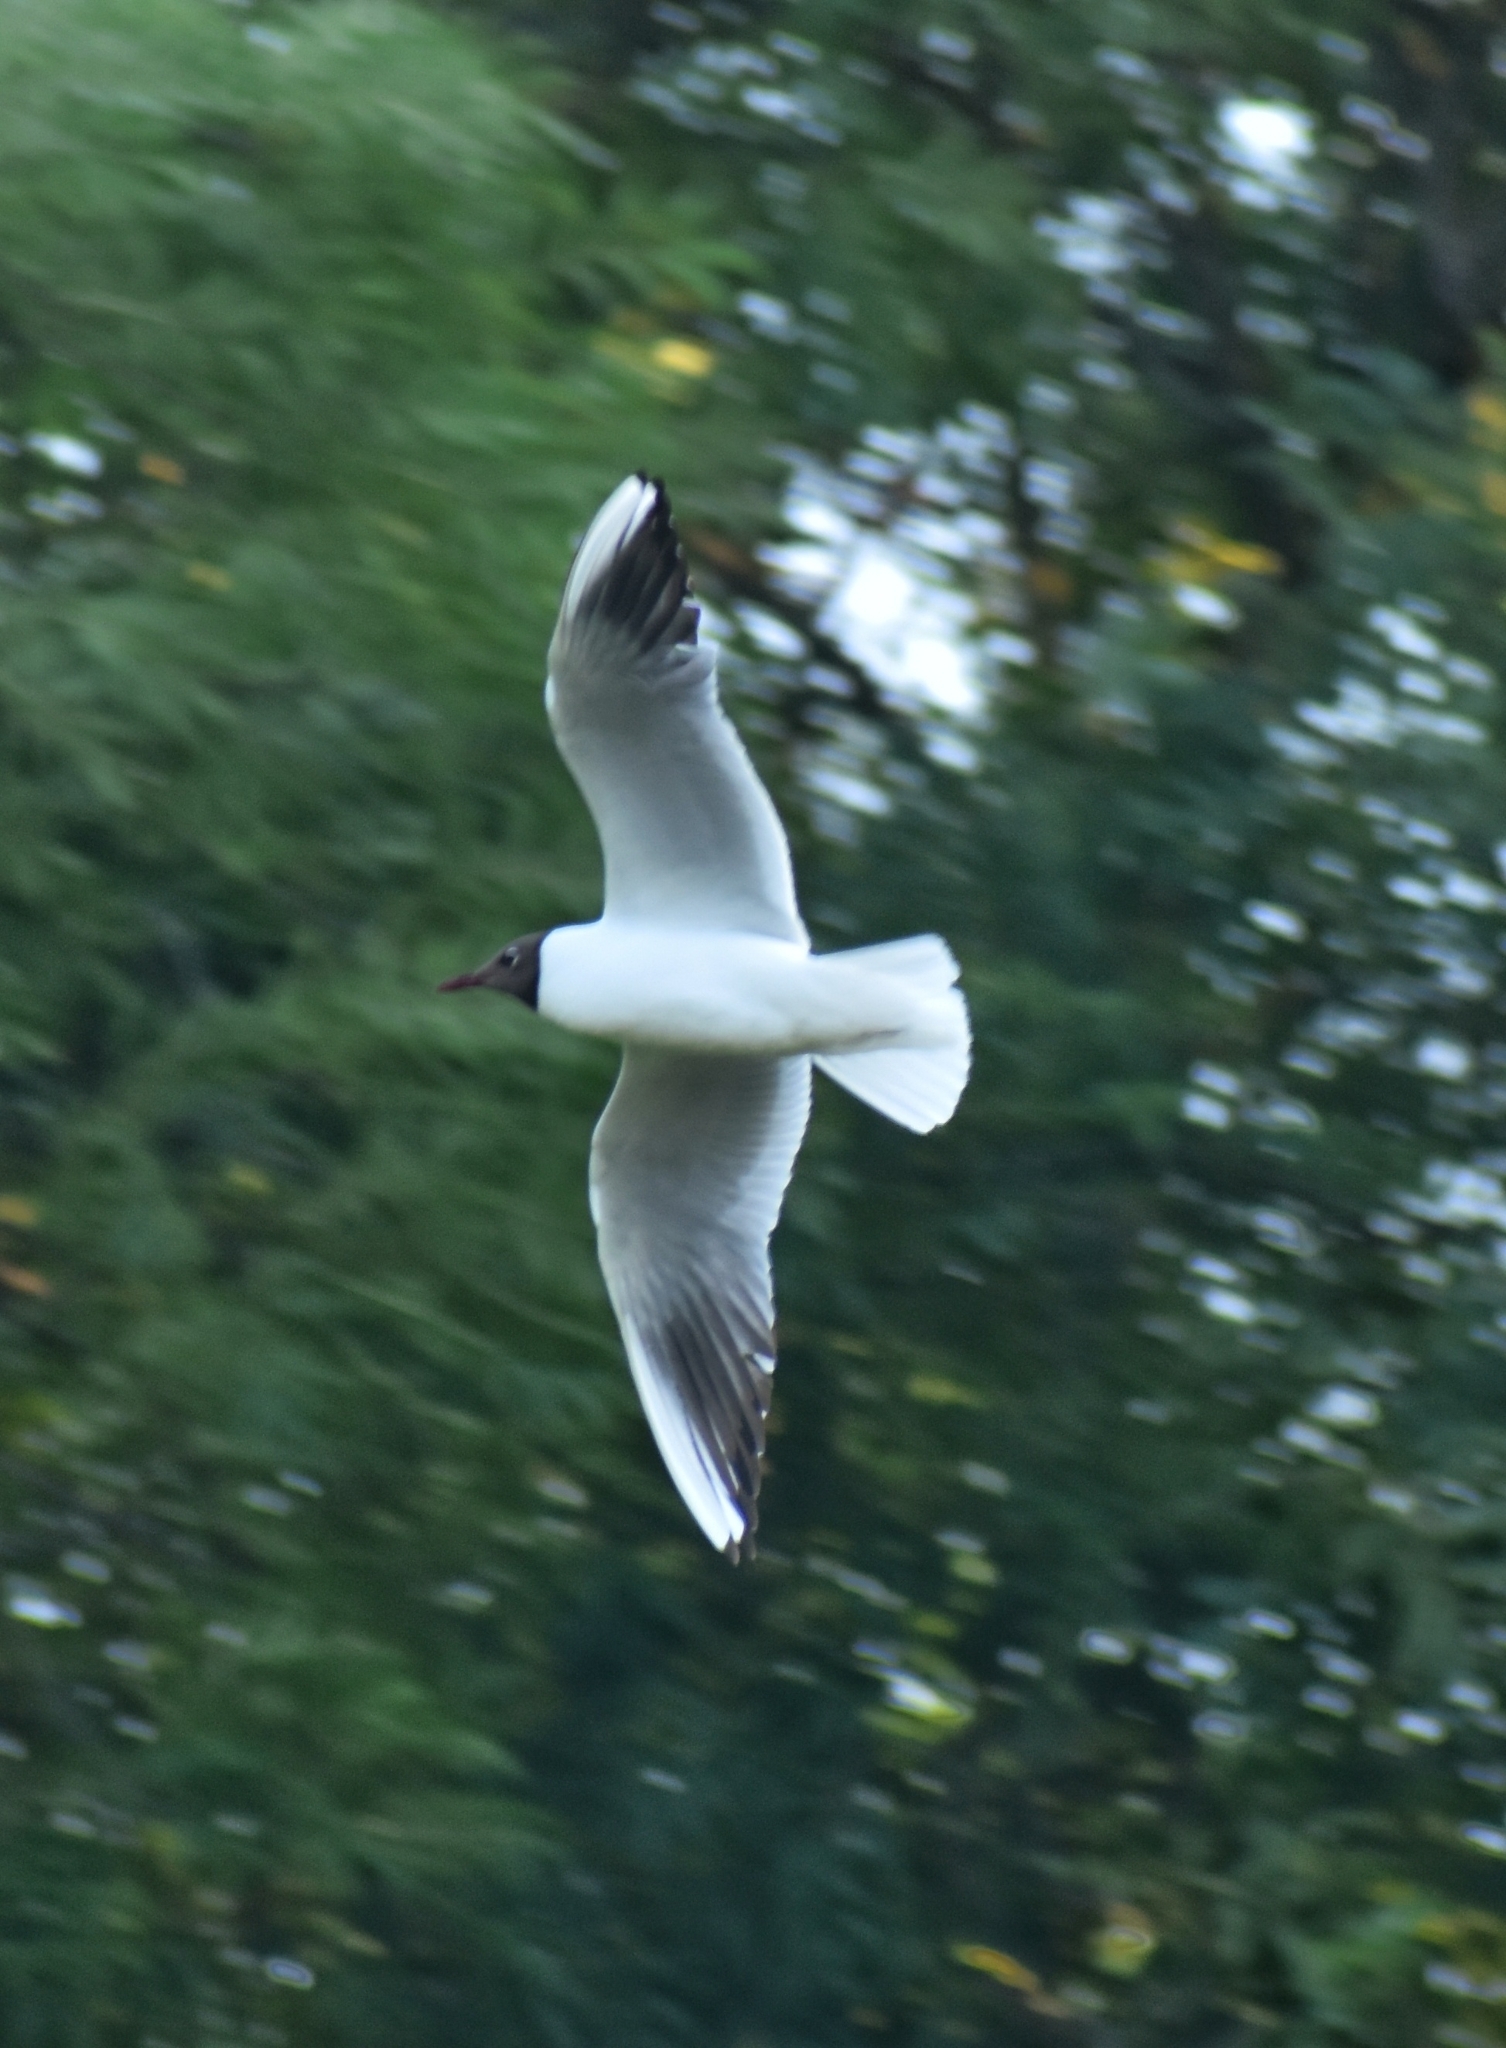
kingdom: Animalia
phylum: Chordata
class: Aves
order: Charadriiformes
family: Laridae
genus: Chroicocephalus
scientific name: Chroicocephalus ridibundus
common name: Black-headed gull
